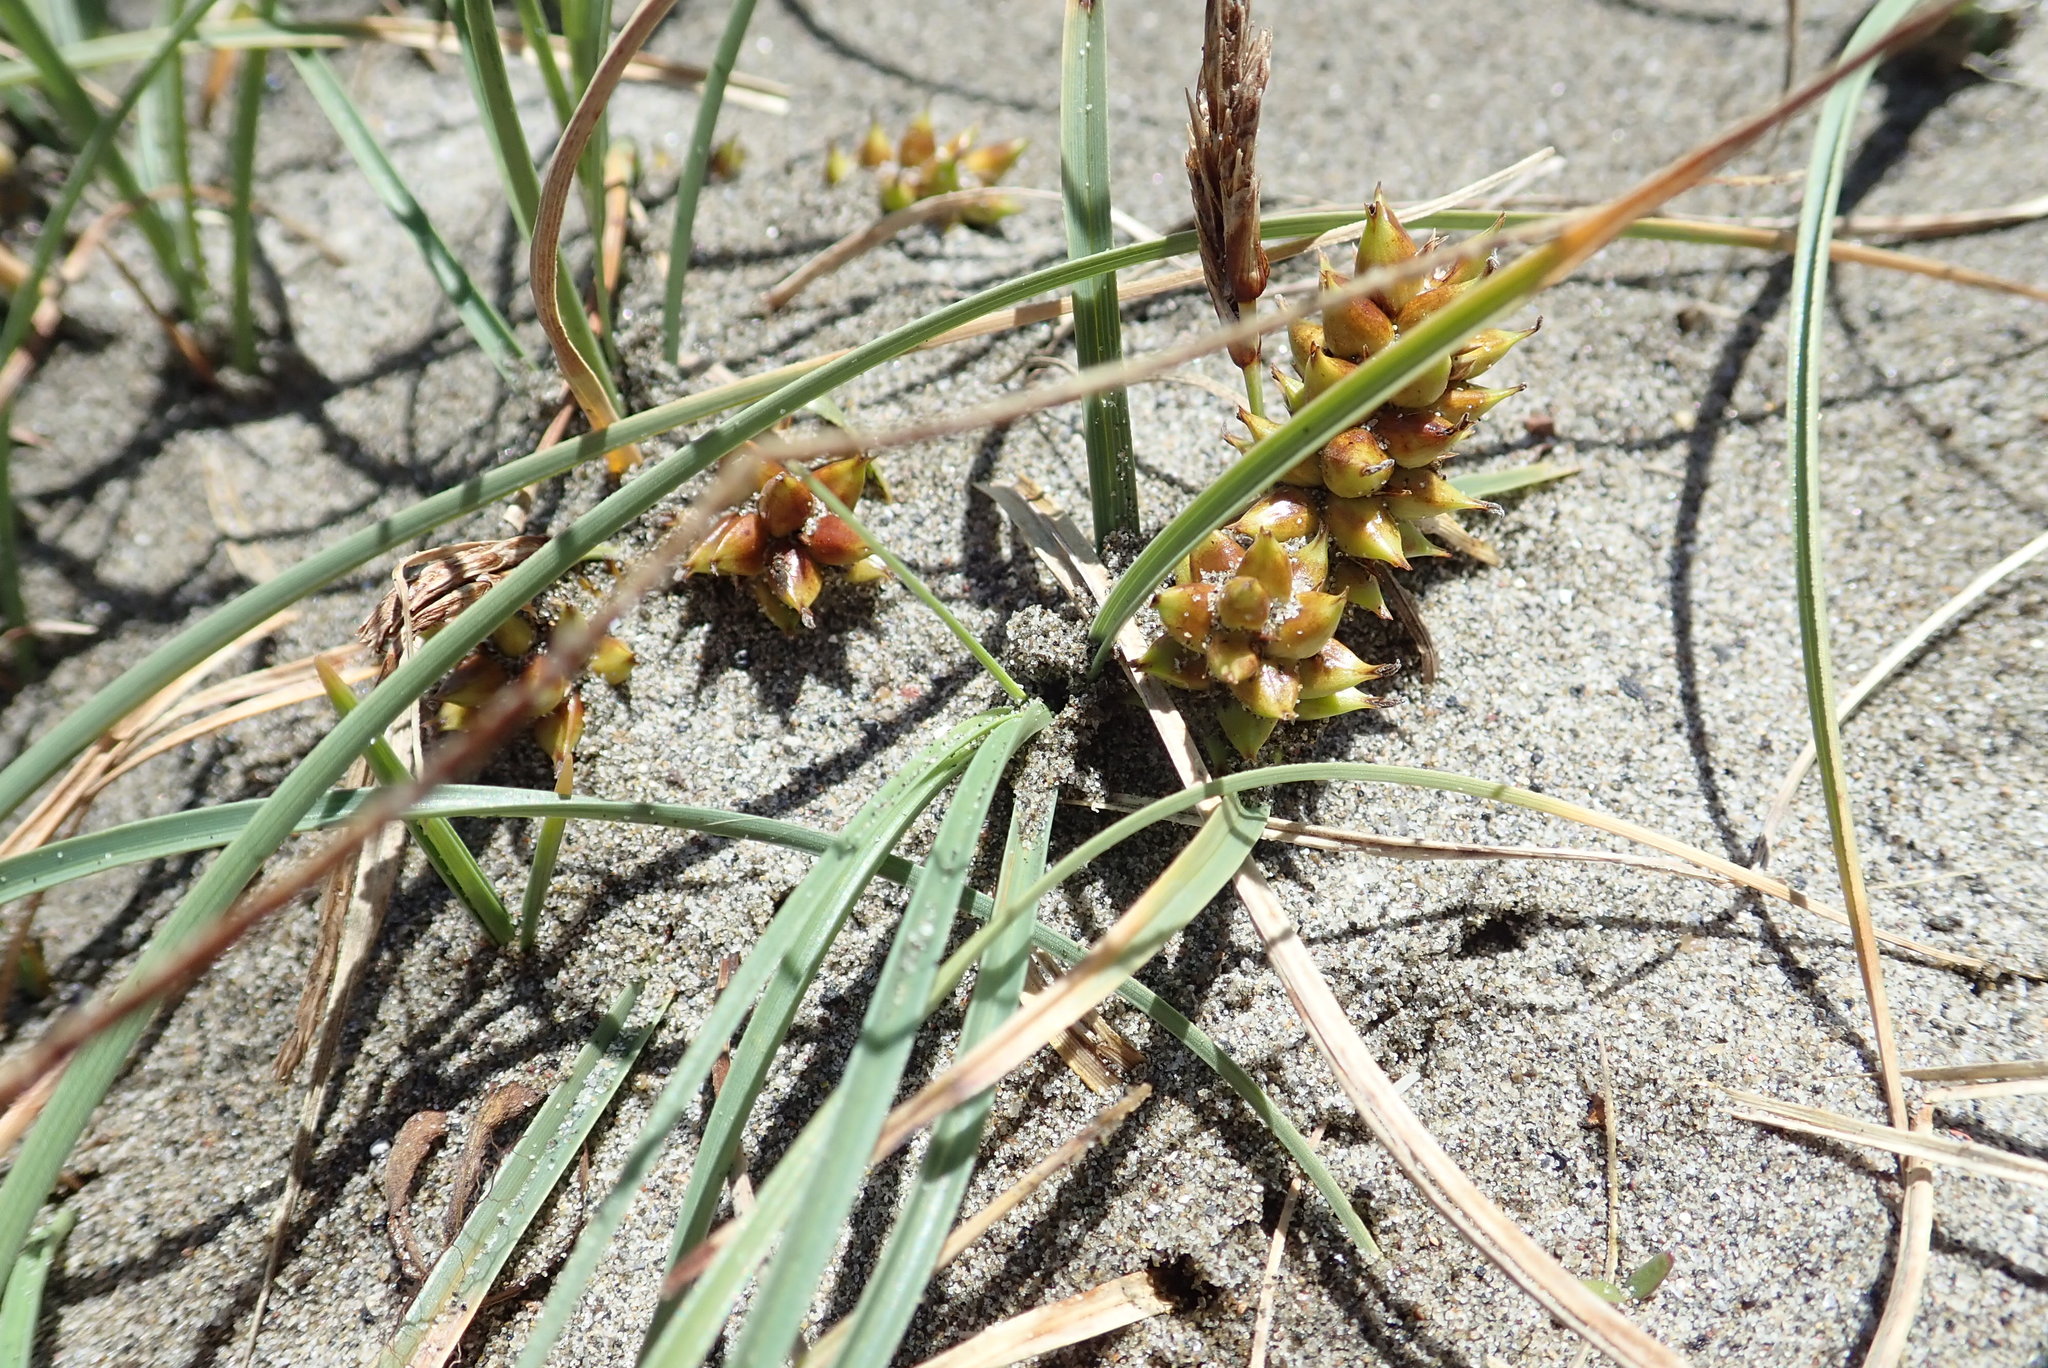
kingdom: Plantae
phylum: Tracheophyta
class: Liliopsida
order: Poales
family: Cyperaceae
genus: Carex
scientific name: Carex pumila
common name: Dwarf sedge
